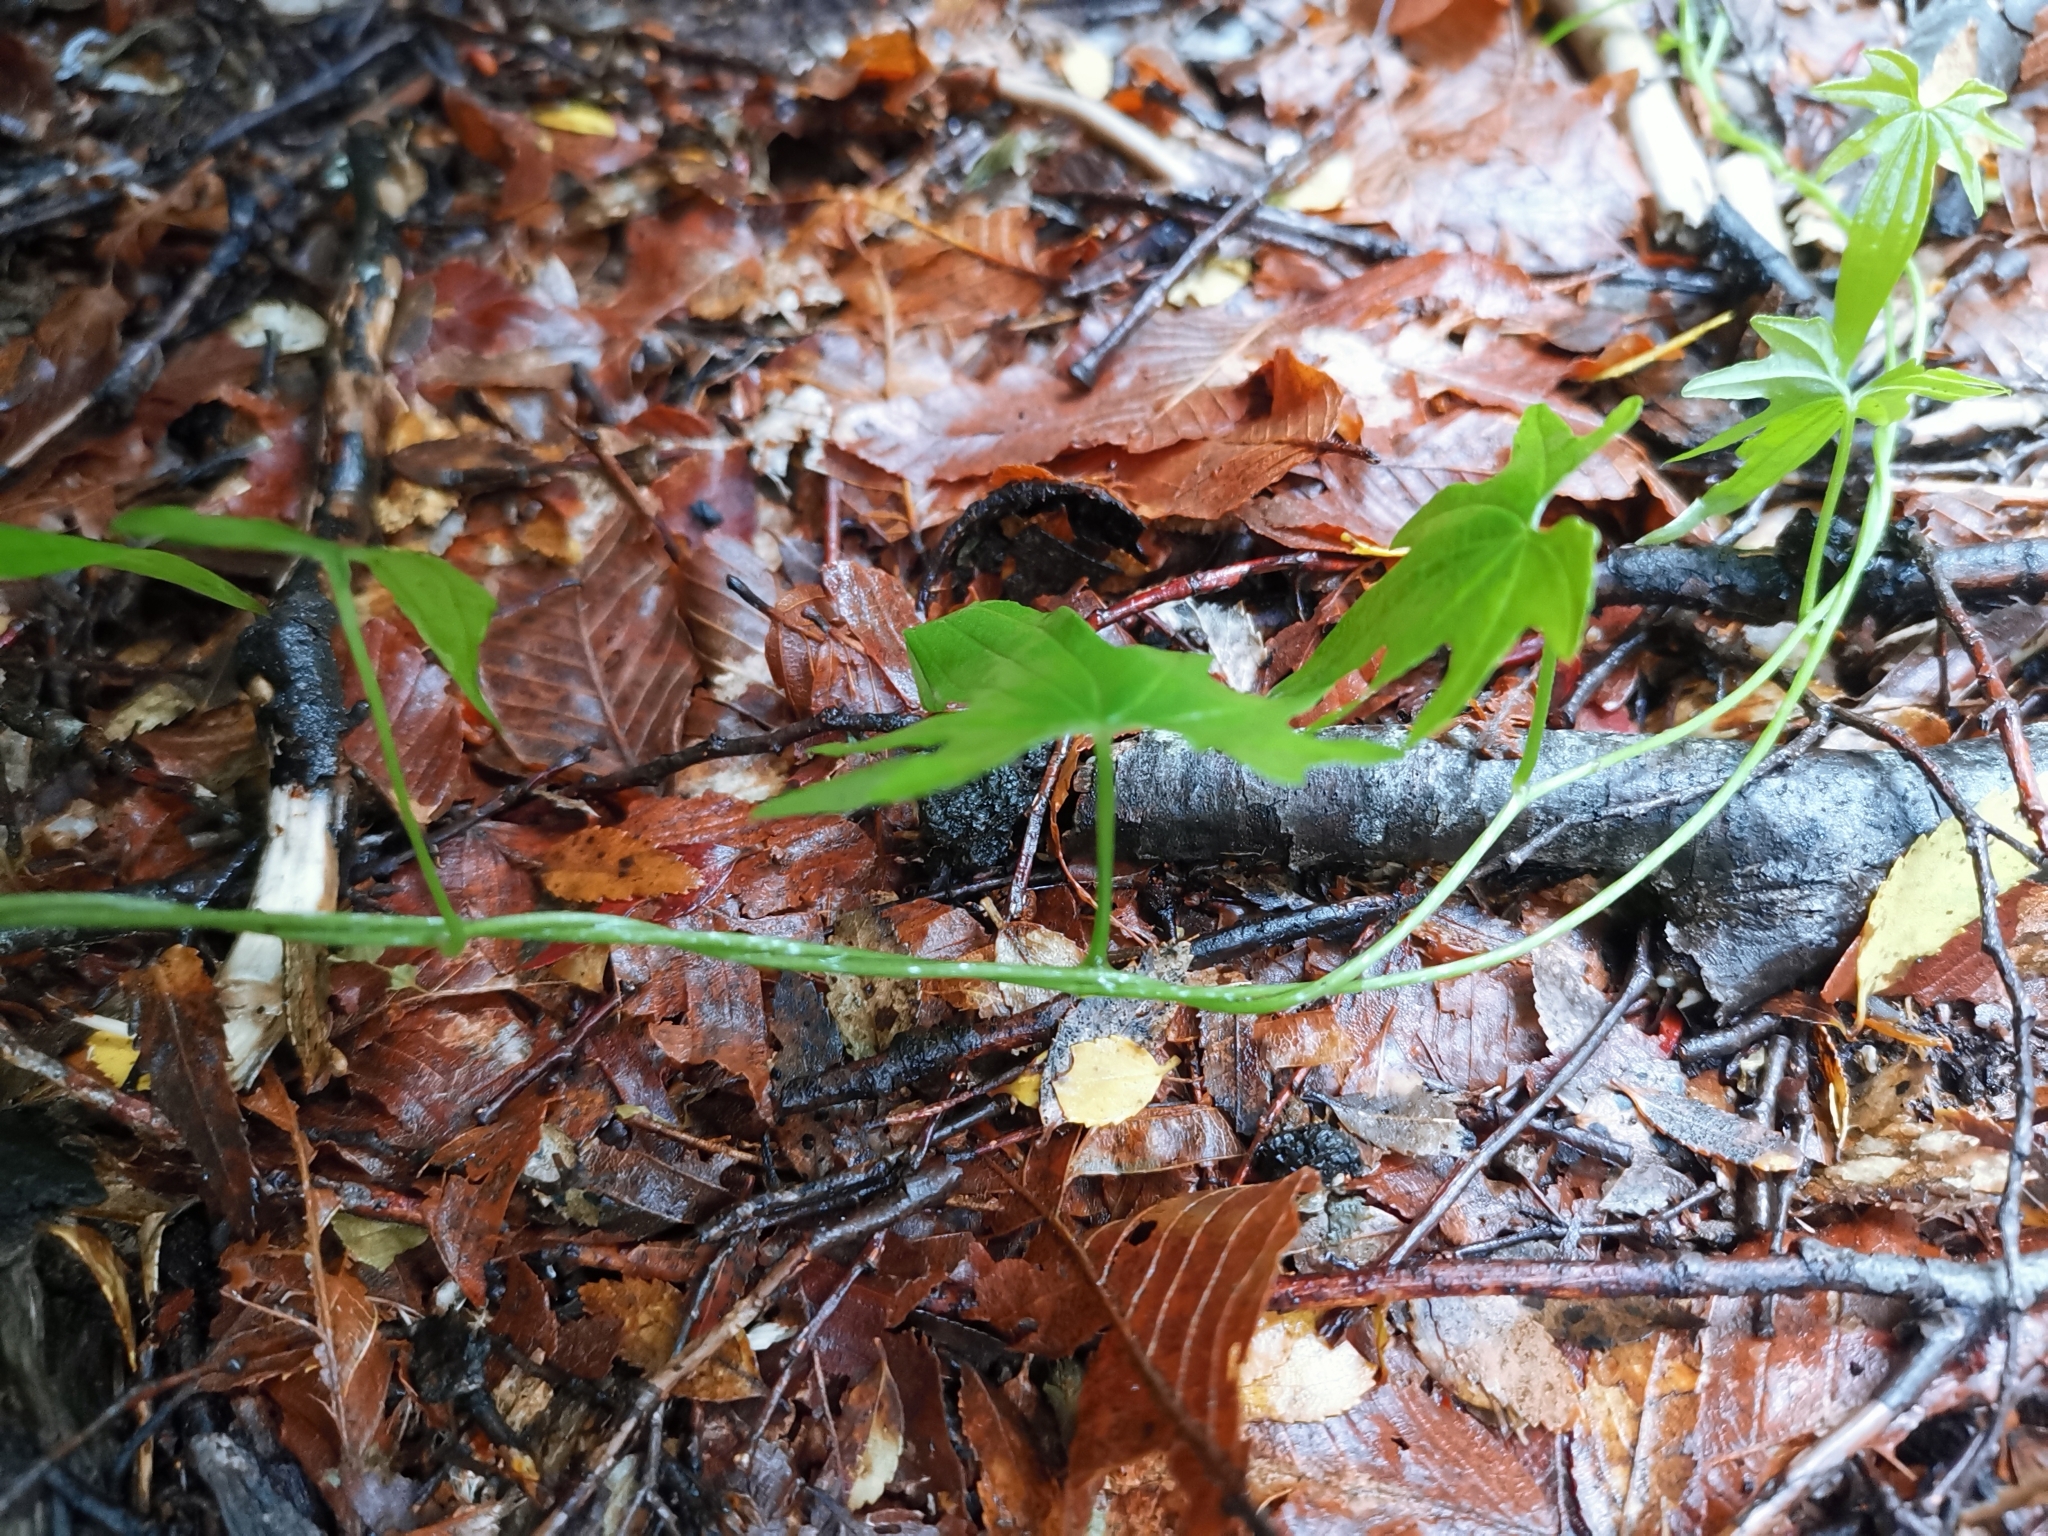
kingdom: Plantae
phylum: Tracheophyta
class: Liliopsida
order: Dioscoreales
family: Dioscoreaceae
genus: Dioscorea
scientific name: Dioscorea brachybotrya
